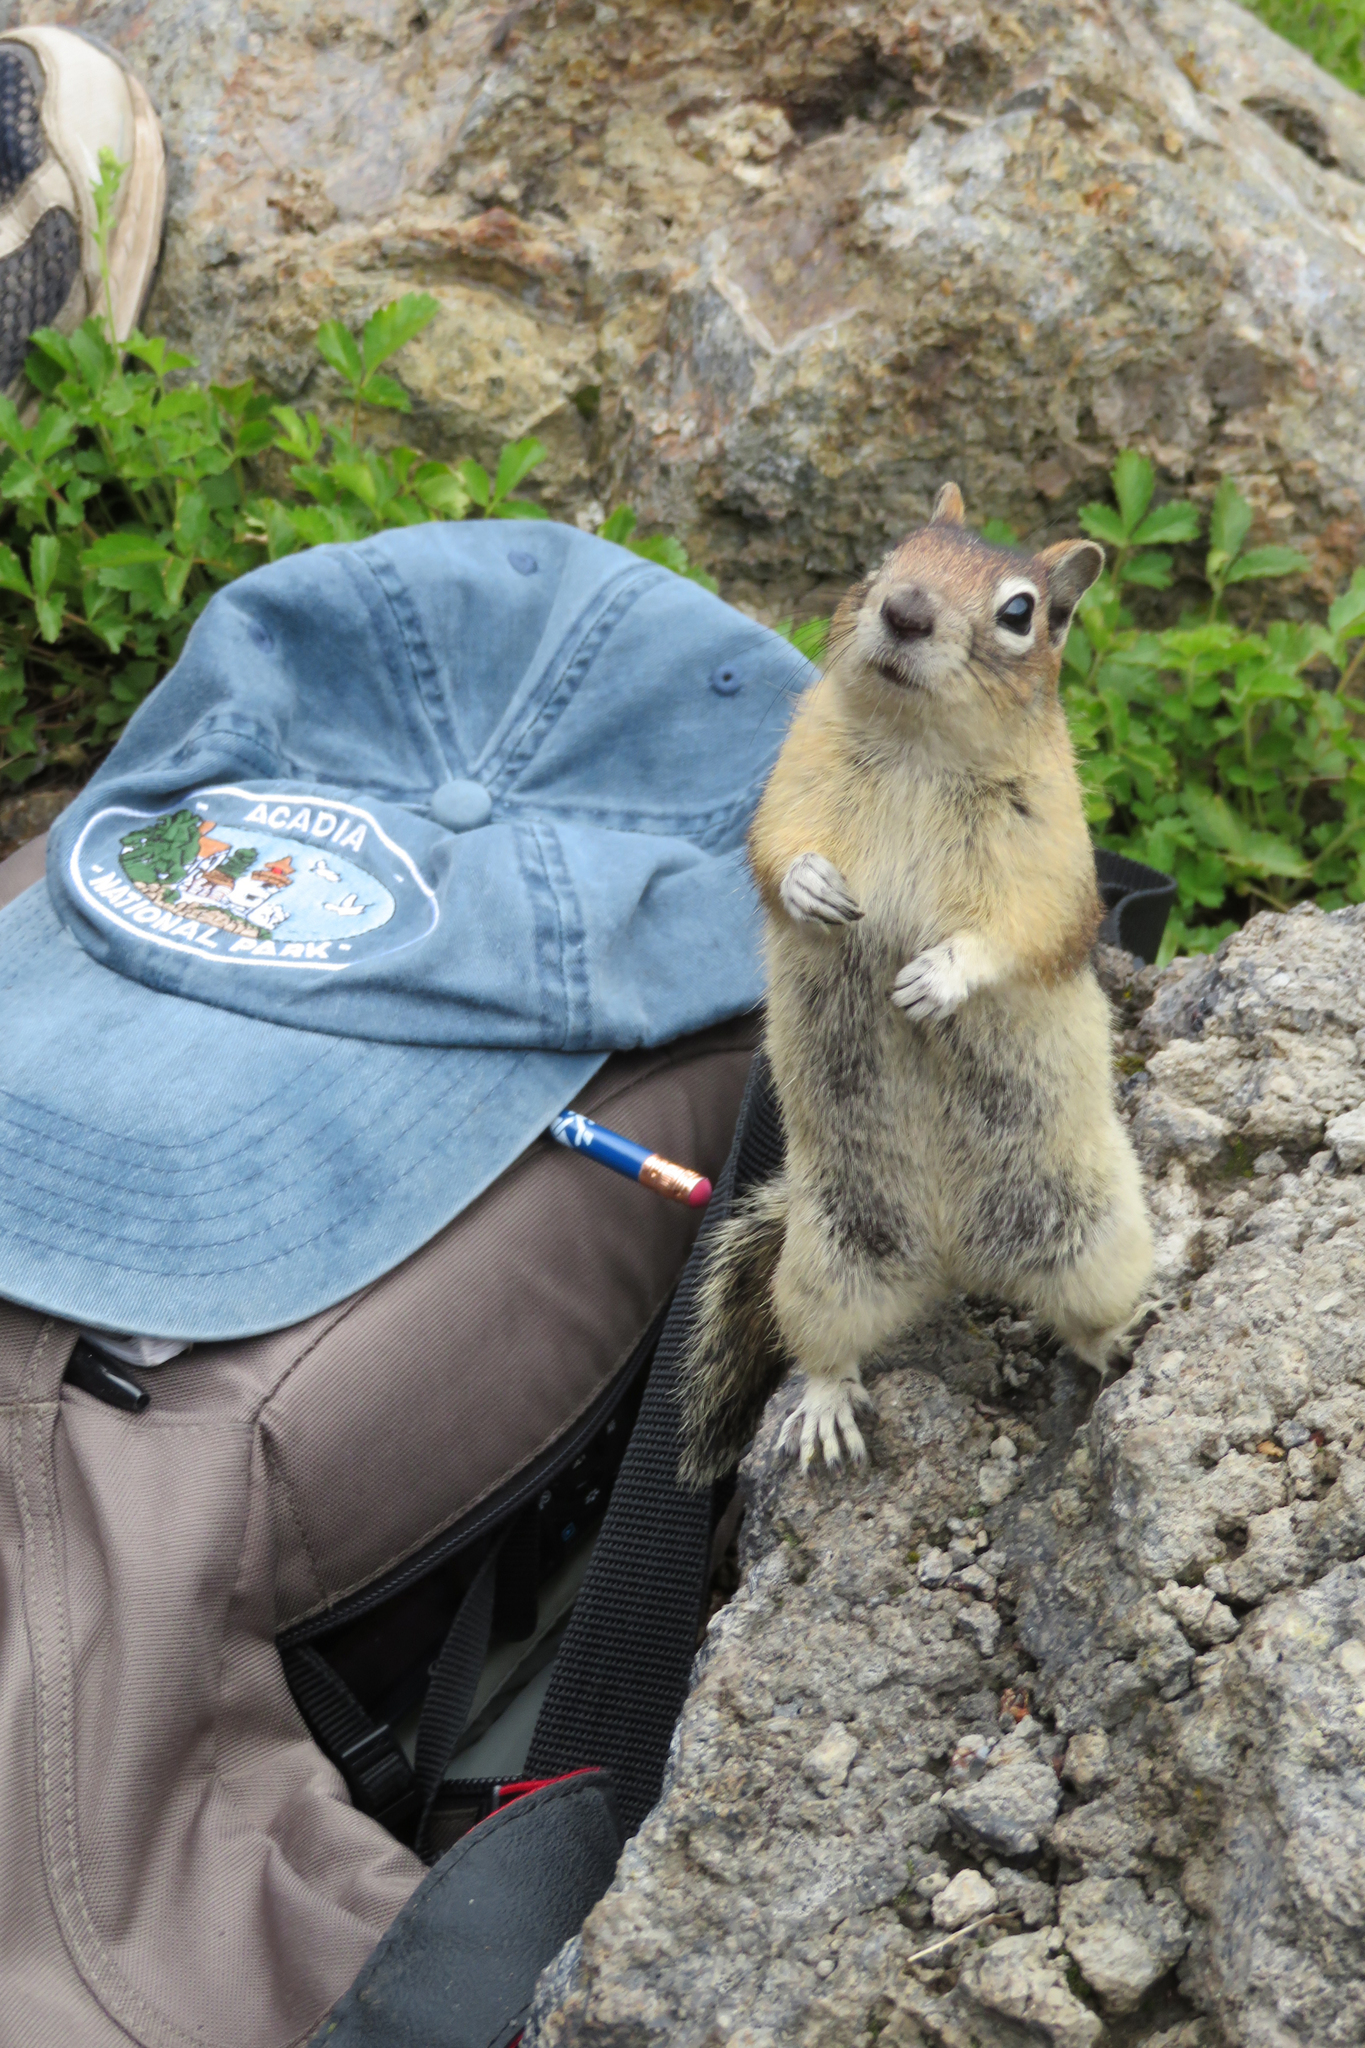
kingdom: Animalia
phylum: Chordata
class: Mammalia
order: Rodentia
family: Sciuridae
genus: Callospermophilus
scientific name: Callospermophilus lateralis
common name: Golden-mantled ground squirrel
